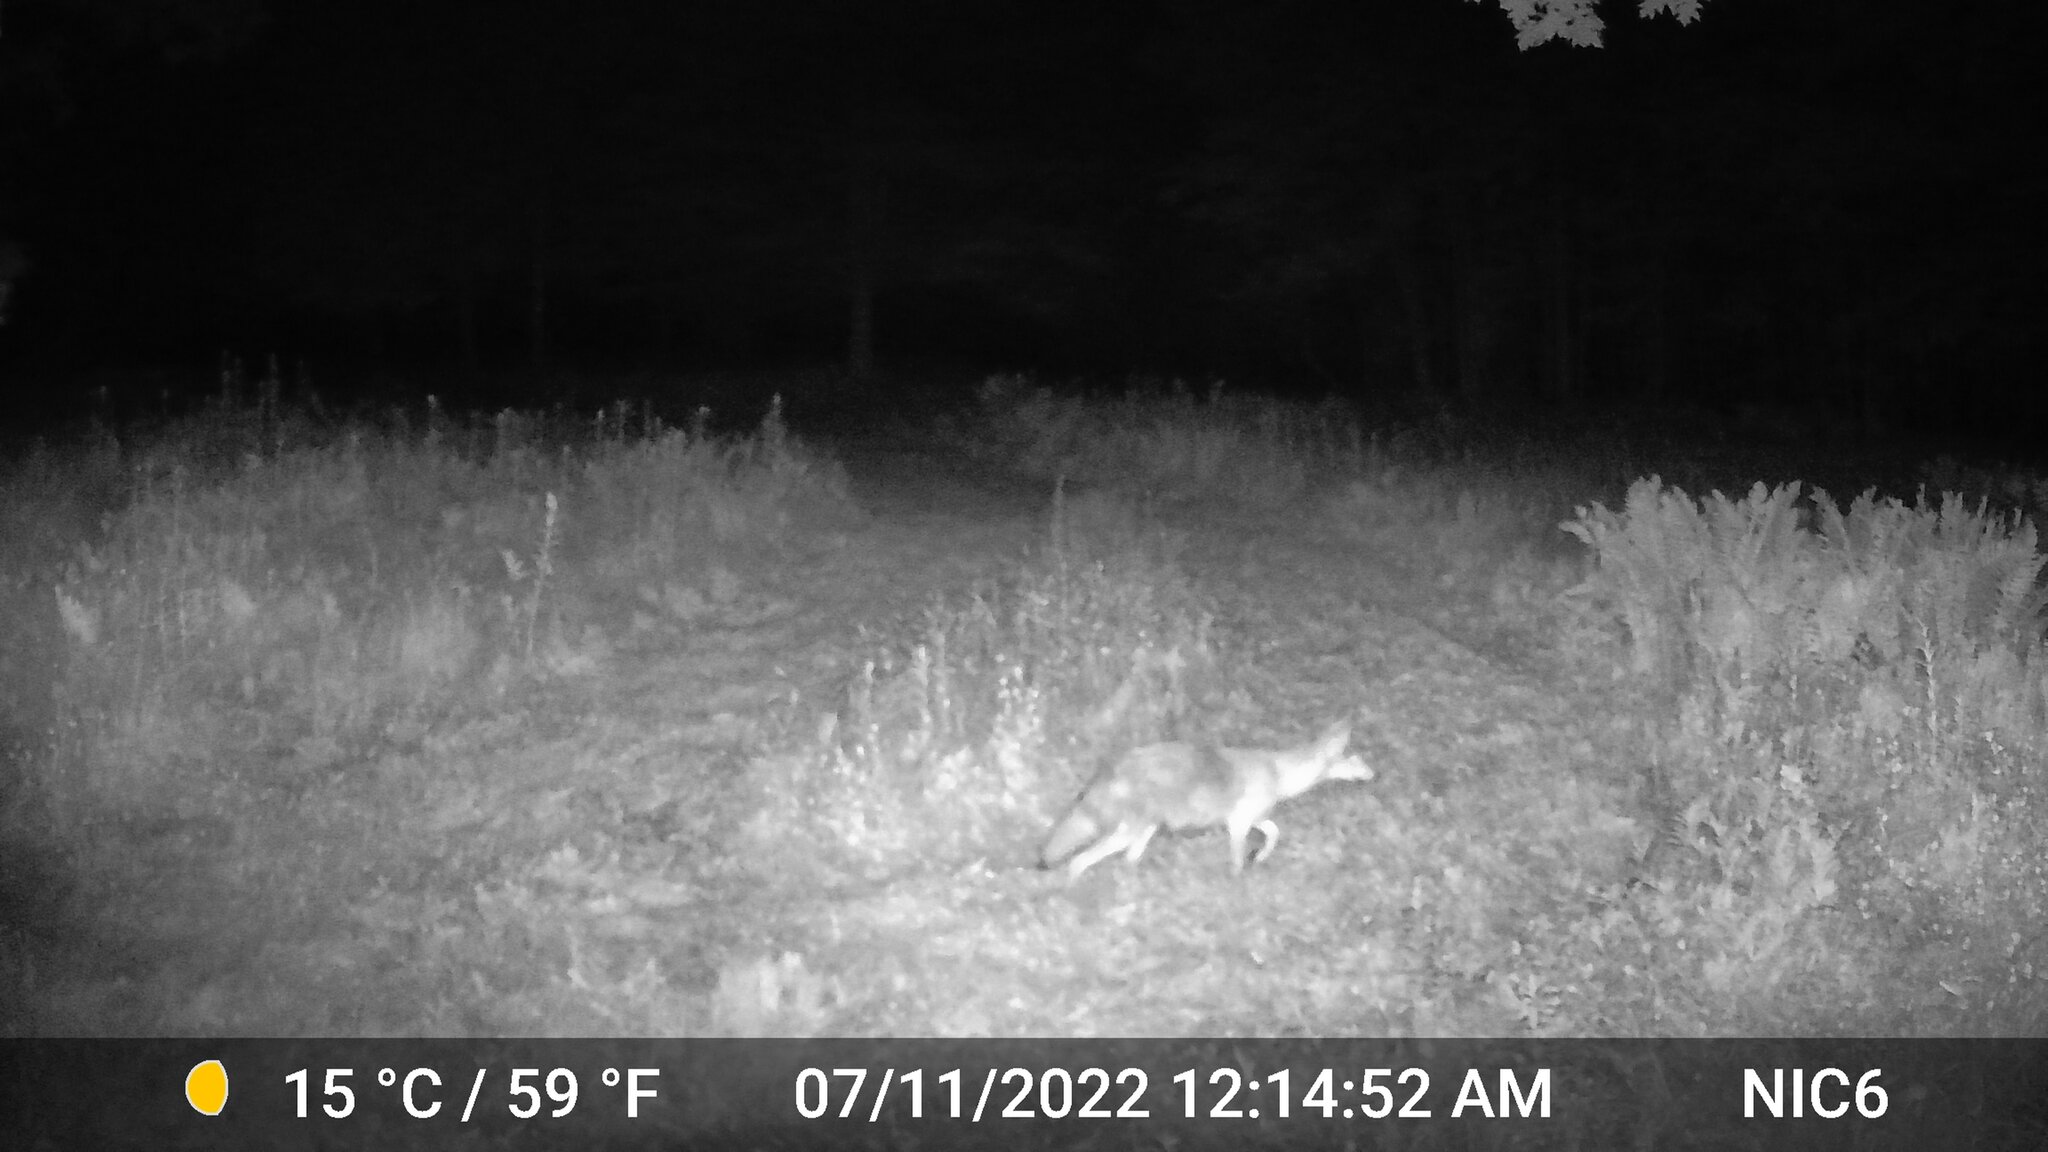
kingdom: Animalia
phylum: Chordata
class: Mammalia
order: Carnivora
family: Canidae
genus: Canis
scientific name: Canis latrans
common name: Coyote
